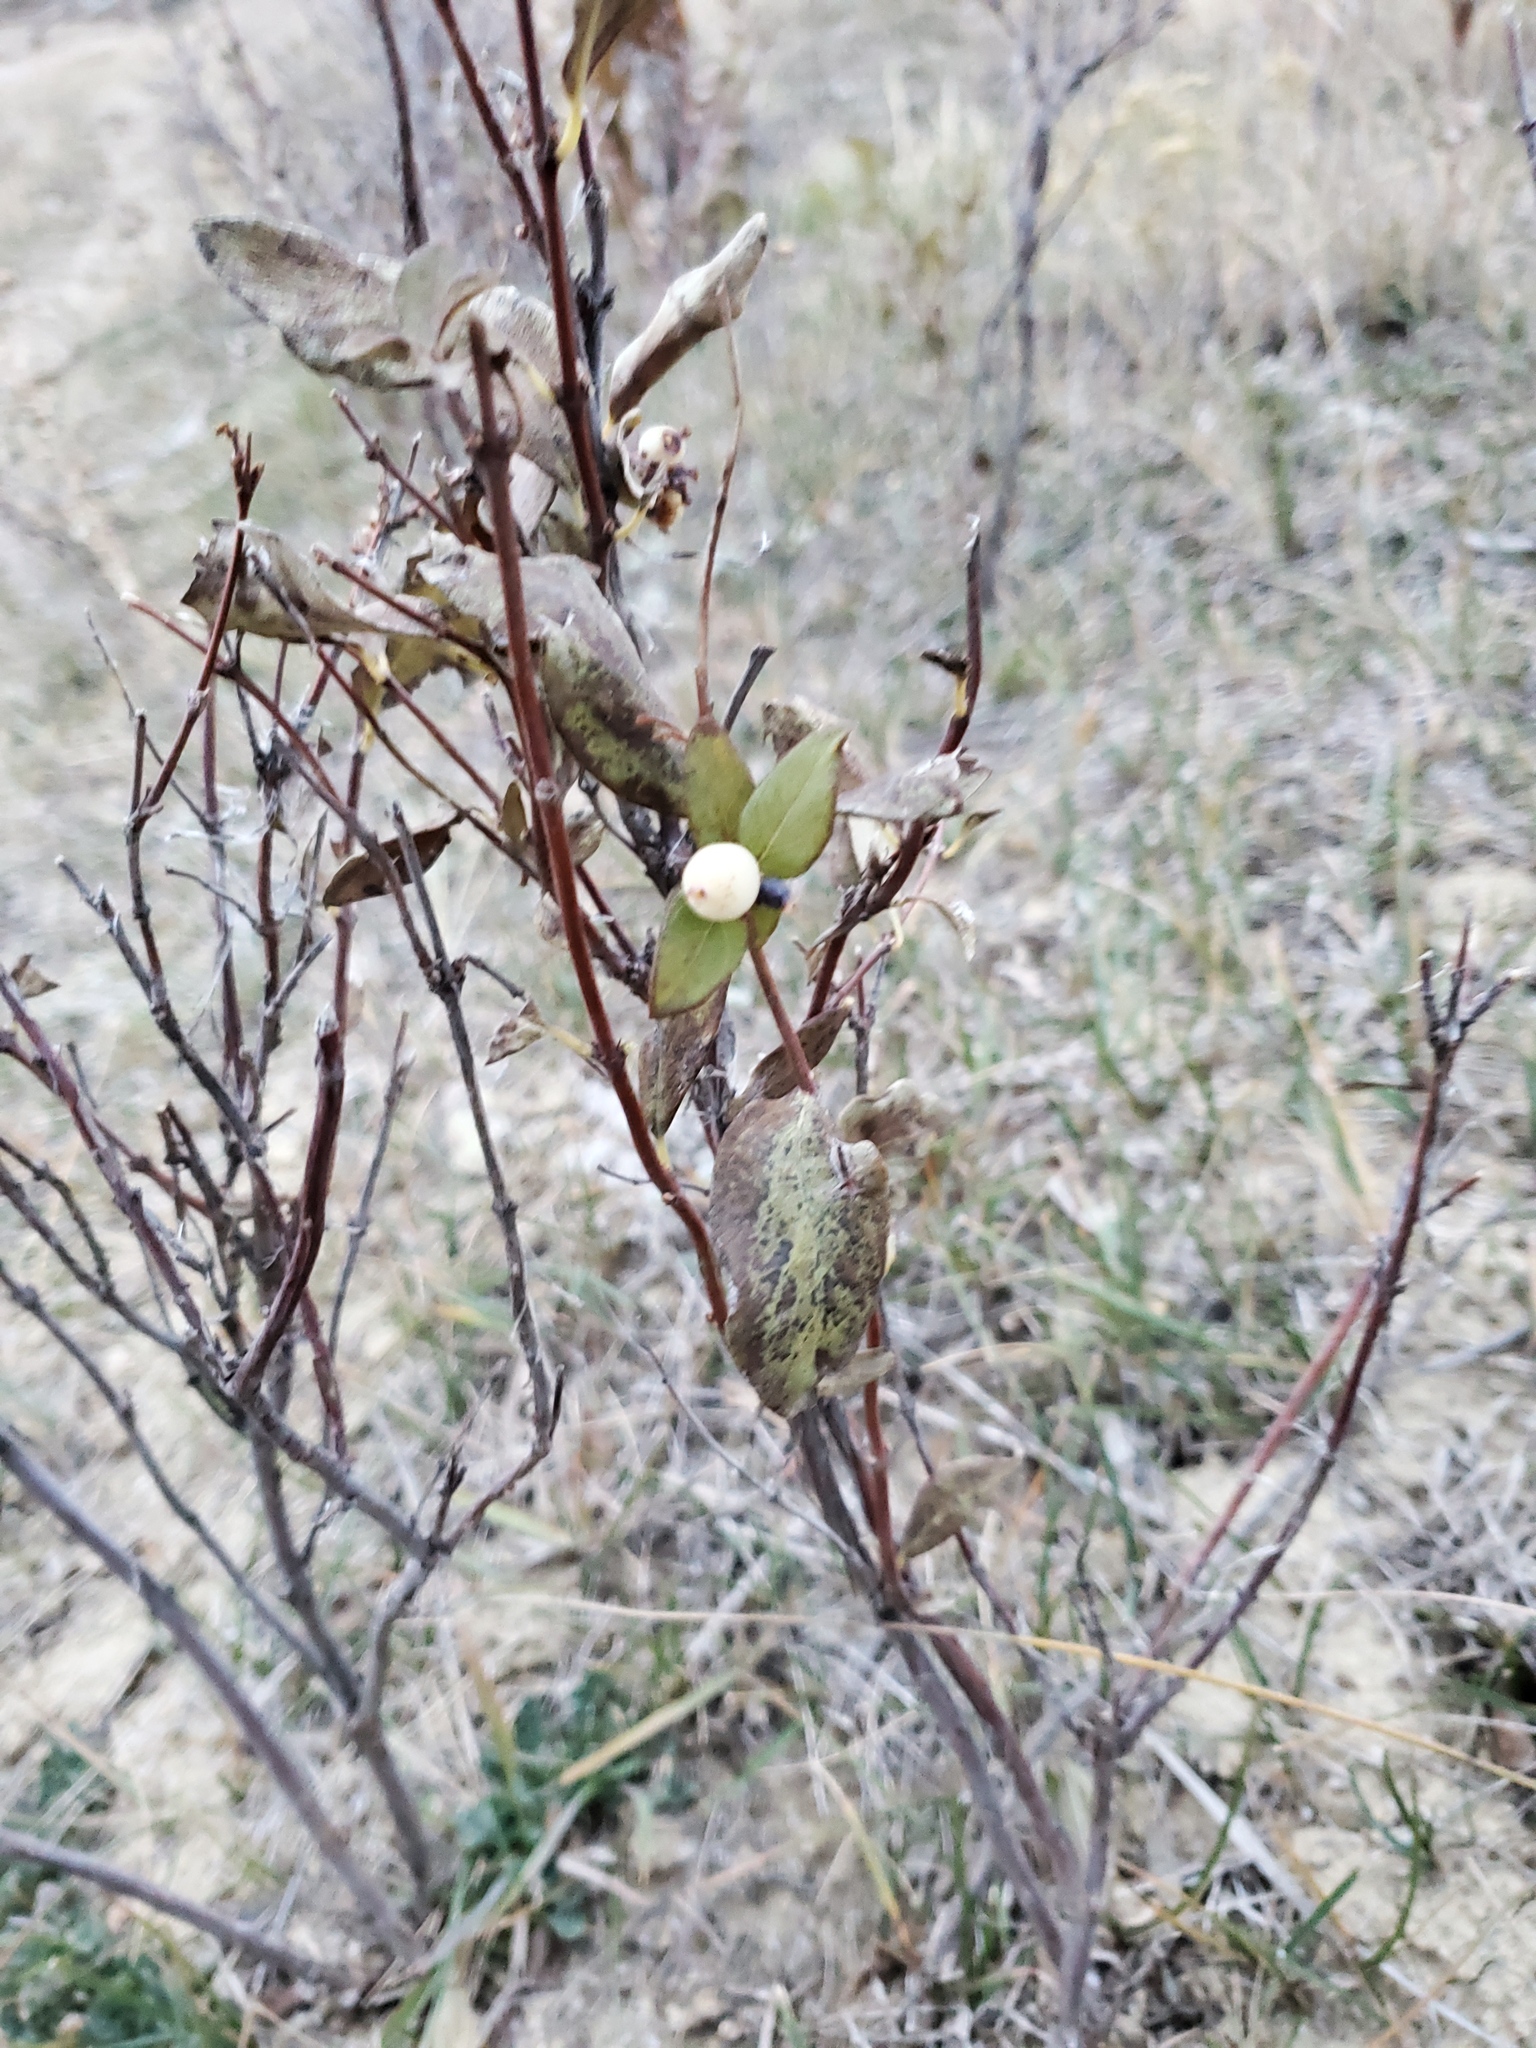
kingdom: Plantae
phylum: Tracheophyta
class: Magnoliopsida
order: Dipsacales
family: Caprifoliaceae
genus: Symphoricarpos
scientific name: Symphoricarpos occidentalis
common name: Wolfberry
